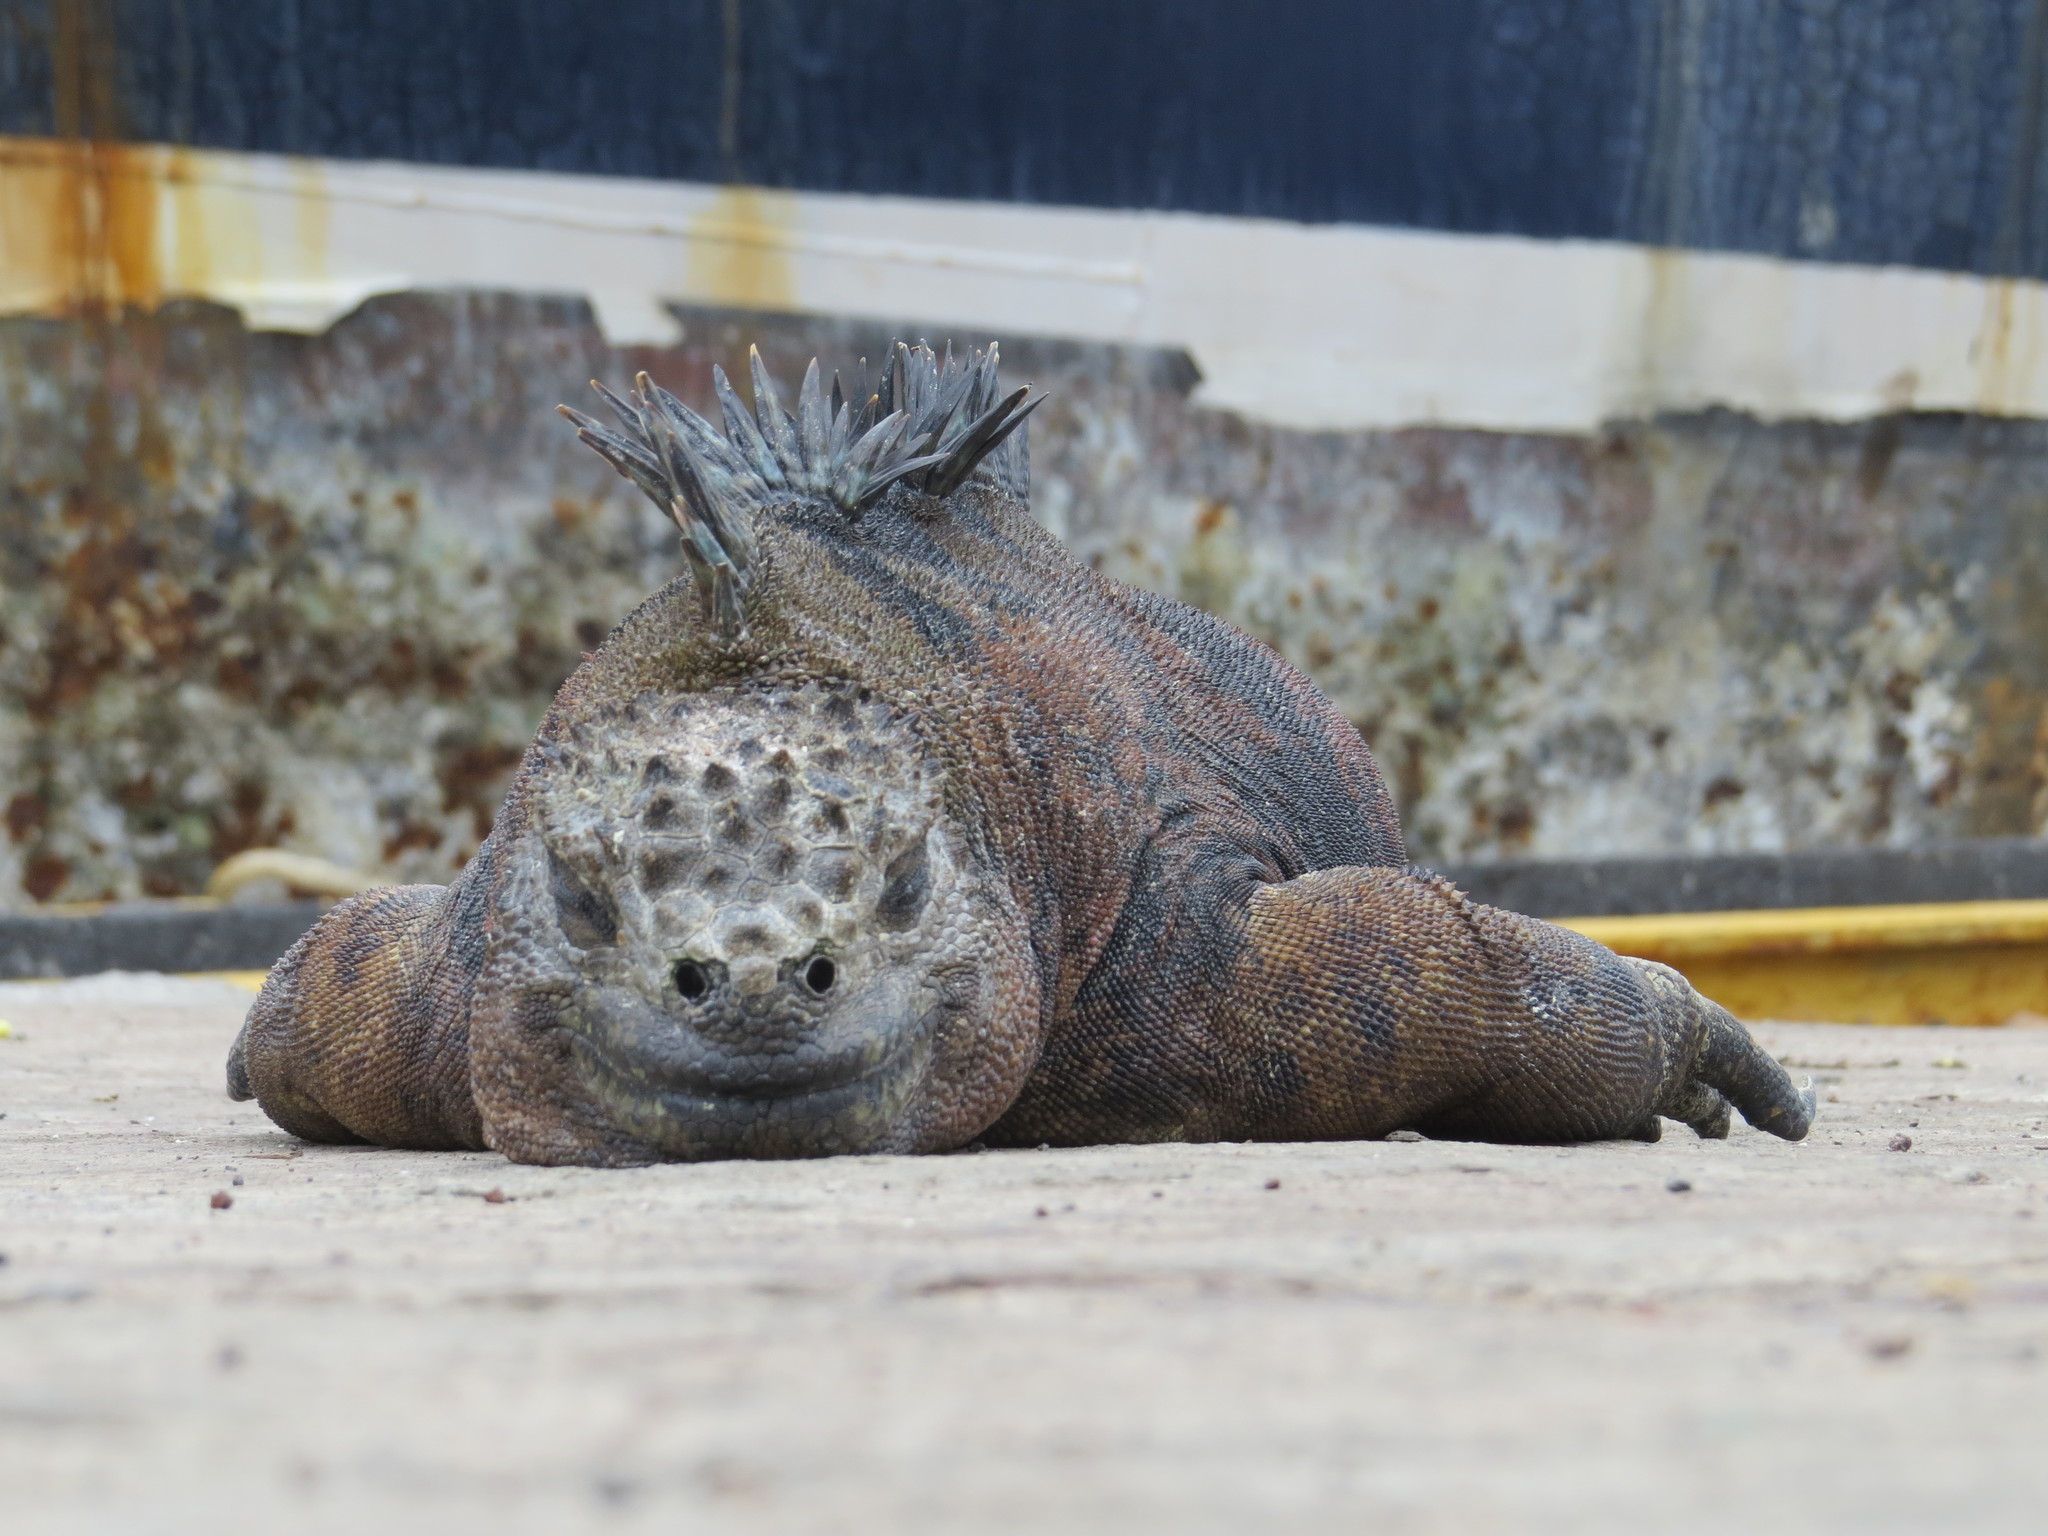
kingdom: Animalia
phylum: Chordata
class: Squamata
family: Iguanidae
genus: Amblyrhynchus
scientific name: Amblyrhynchus cristatus
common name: Marine iguana
